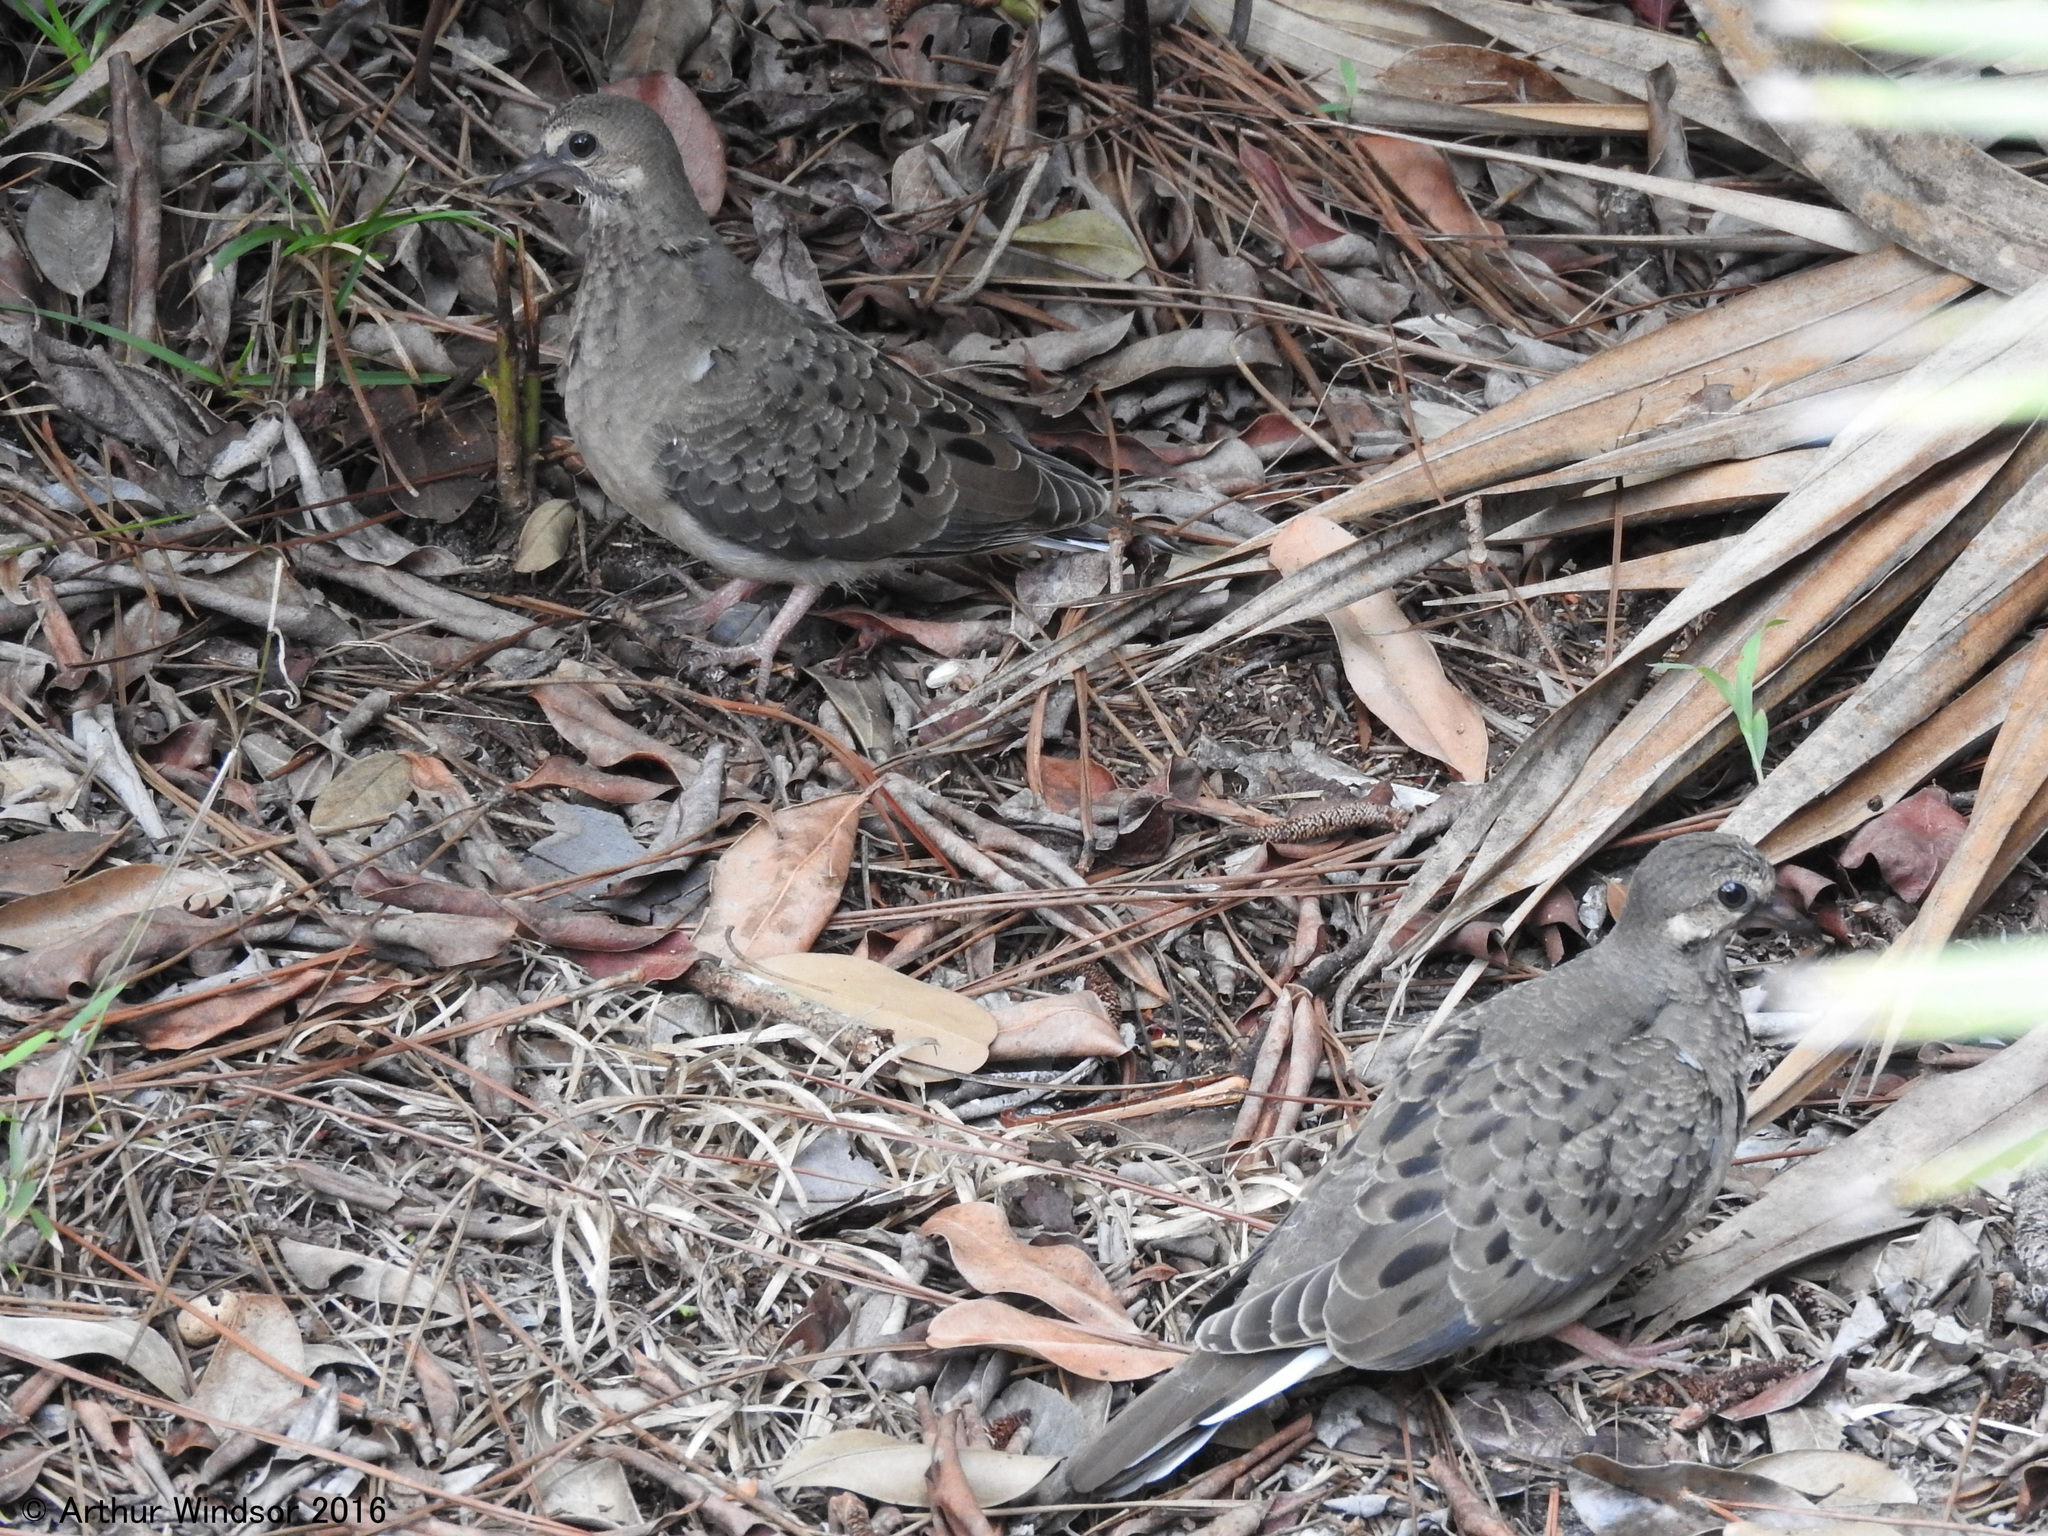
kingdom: Animalia
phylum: Chordata
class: Aves
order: Columbiformes
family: Columbidae
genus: Zenaida
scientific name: Zenaida macroura
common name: Mourning dove
